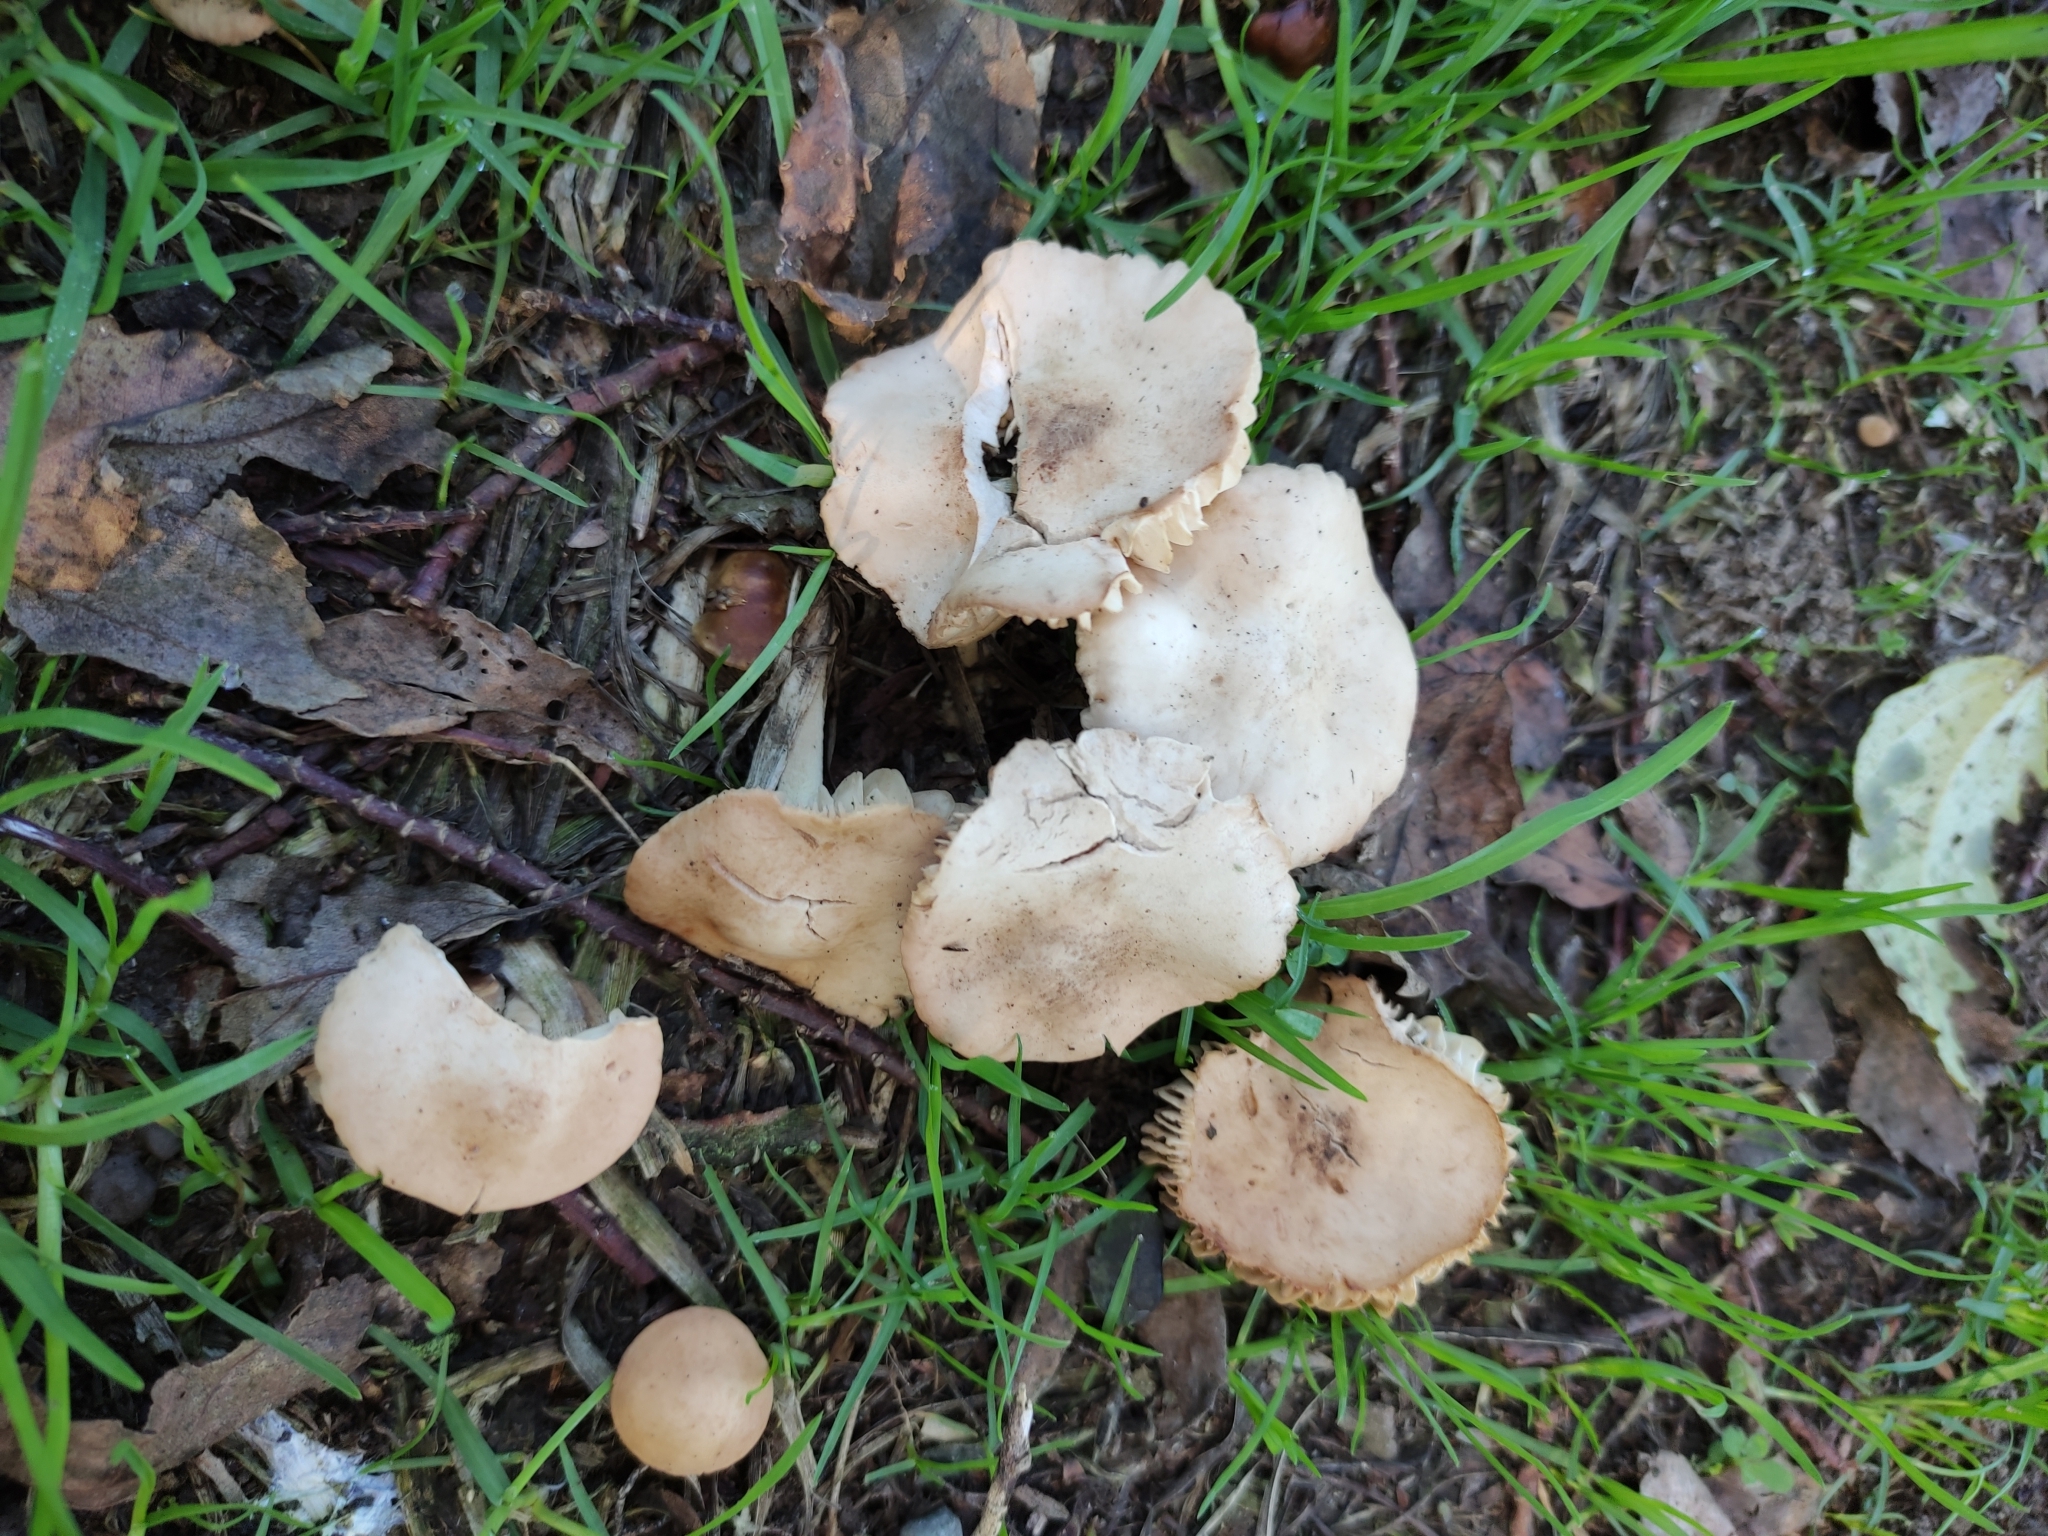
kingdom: Fungi
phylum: Basidiomycota
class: Agaricomycetes
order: Agaricales
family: Marasmiaceae
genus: Marasmius
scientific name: Marasmius oreades
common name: Fairy ring champignon
